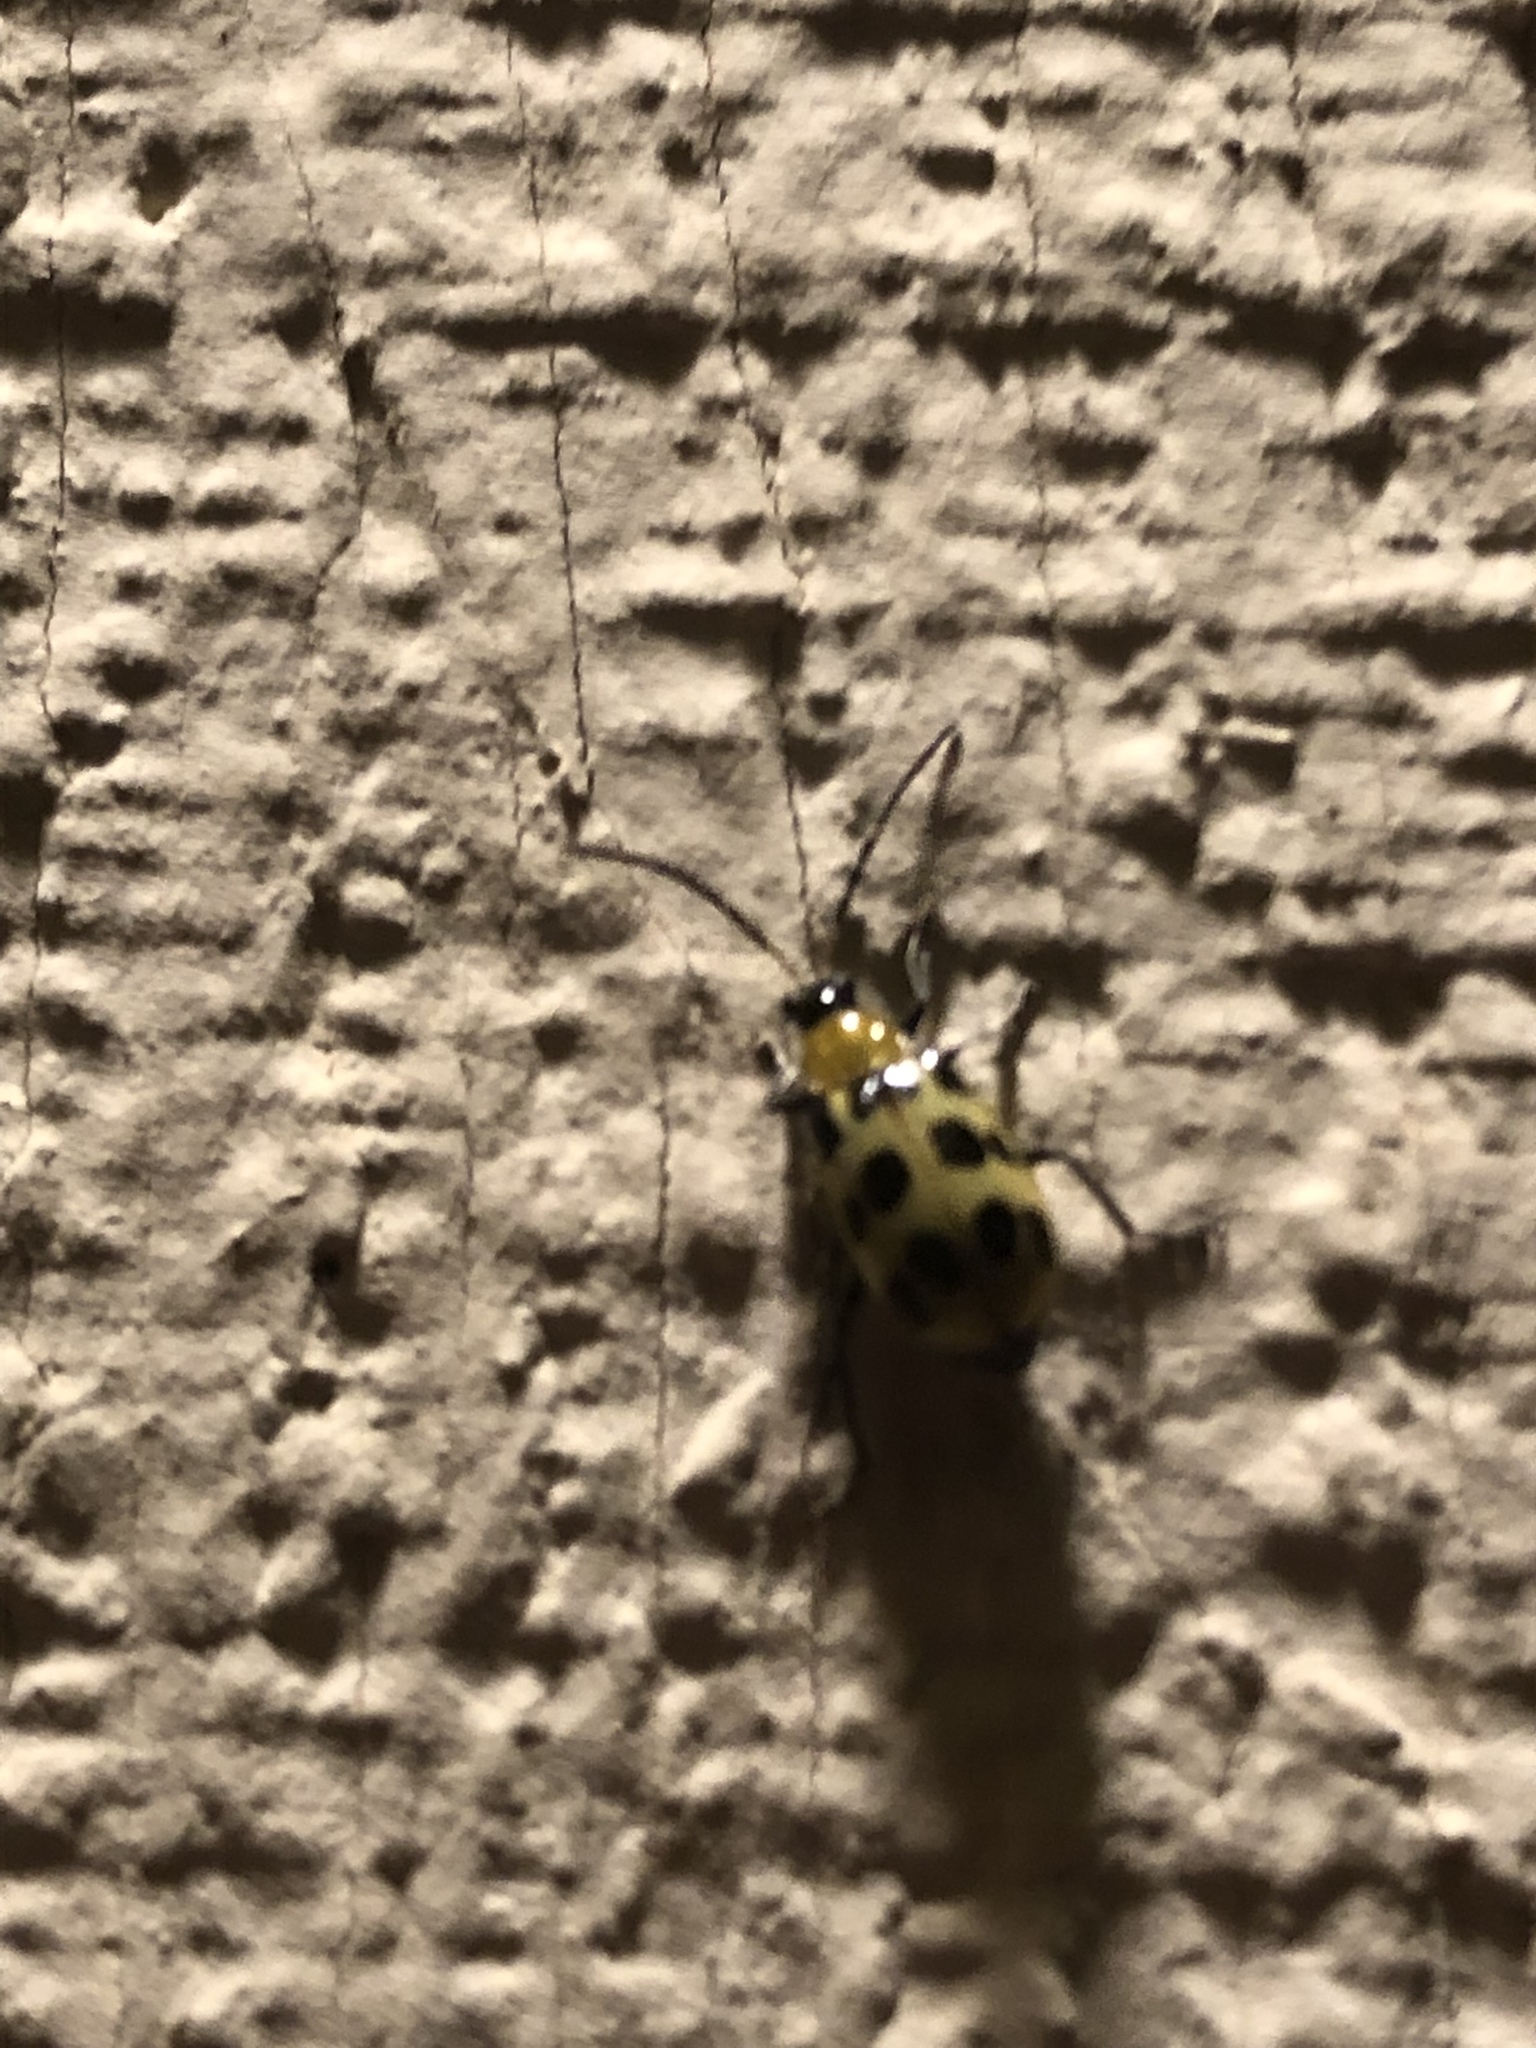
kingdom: Animalia
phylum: Arthropoda
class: Insecta
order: Coleoptera
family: Chrysomelidae
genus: Diabrotica
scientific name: Diabrotica undecimpunctata
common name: Spotted cucumber beetle
